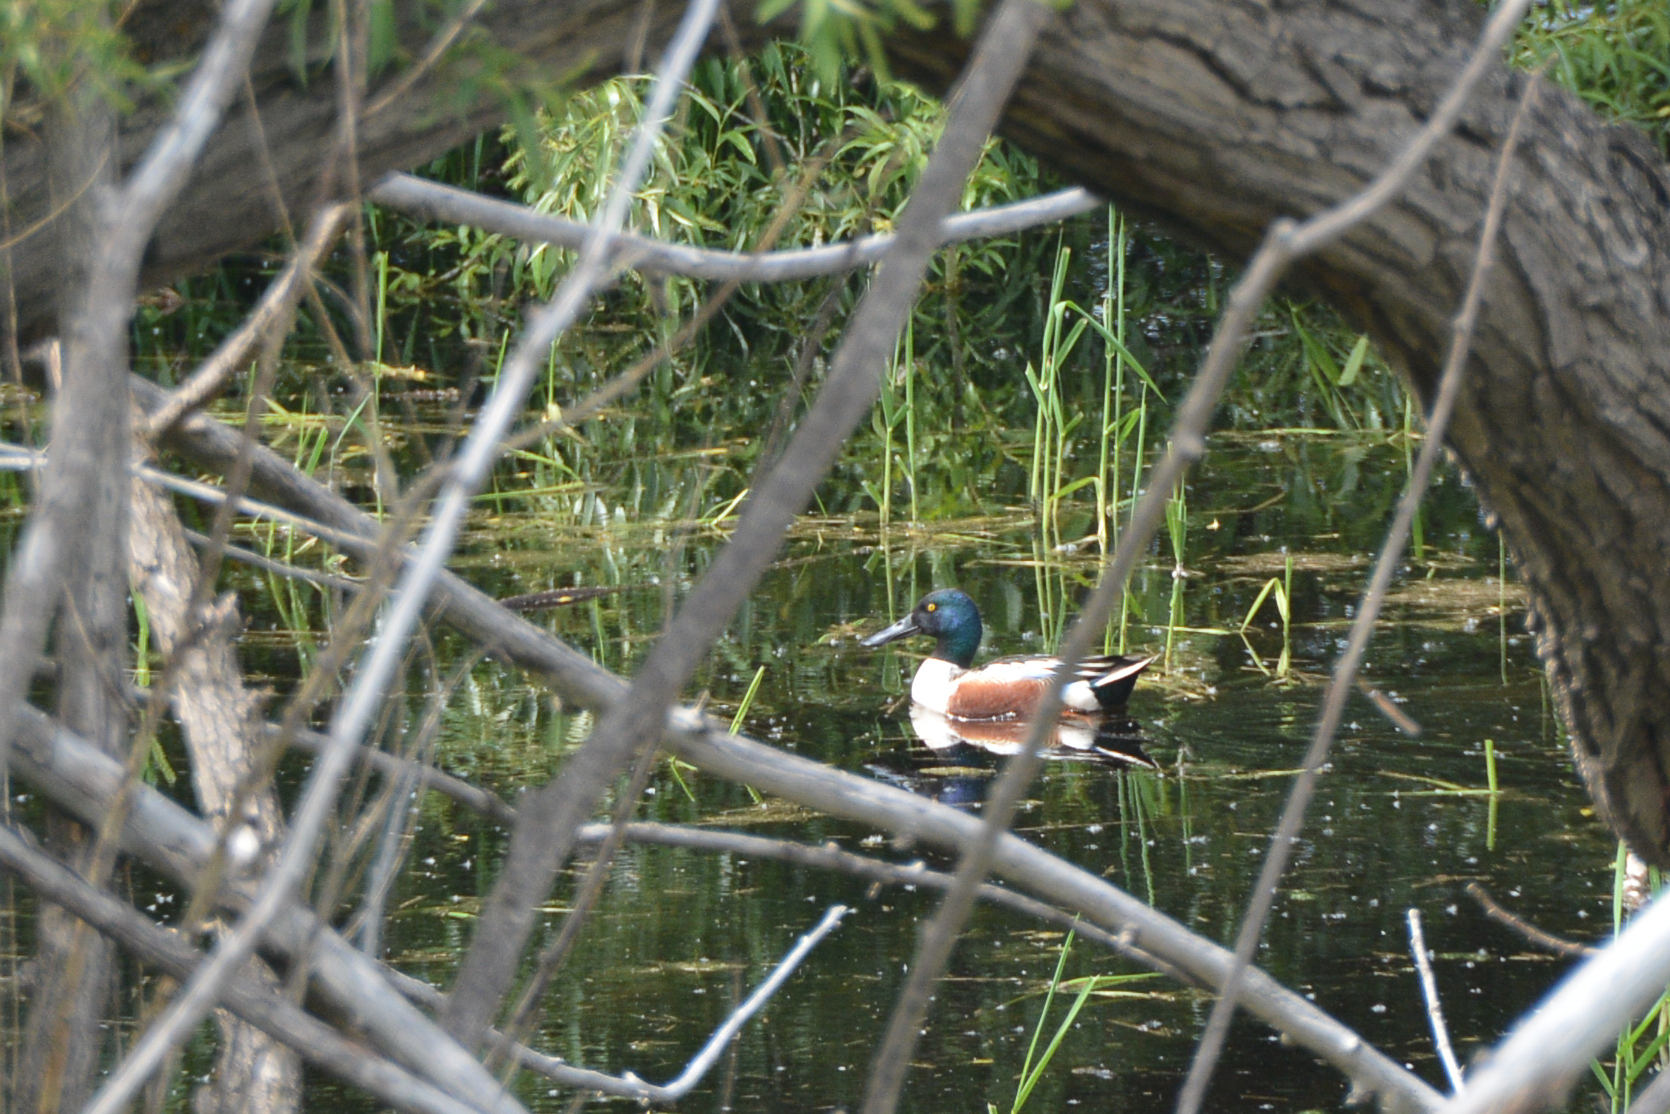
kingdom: Animalia
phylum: Chordata
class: Aves
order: Anseriformes
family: Anatidae
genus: Spatula
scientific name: Spatula clypeata
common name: Northern shoveler
